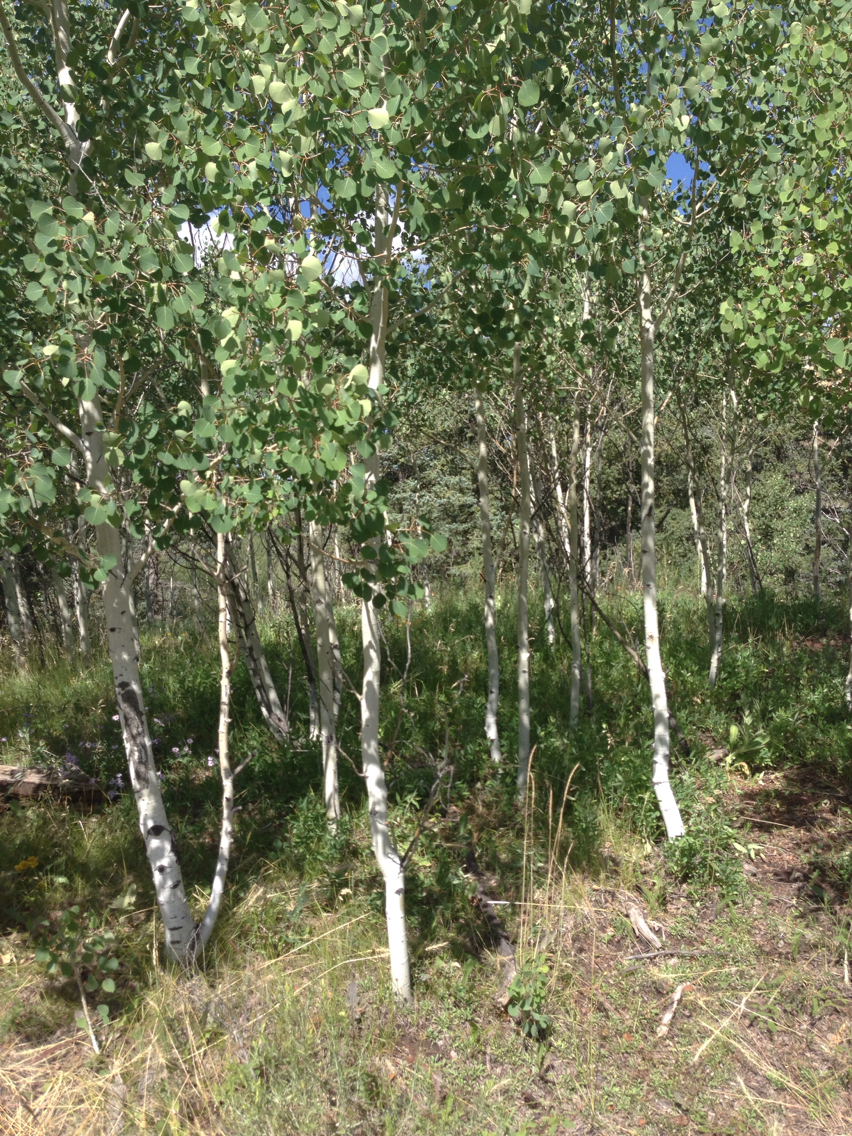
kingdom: Plantae
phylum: Tracheophyta
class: Magnoliopsida
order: Malpighiales
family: Salicaceae
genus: Populus
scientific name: Populus tremuloides
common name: Quaking aspen
